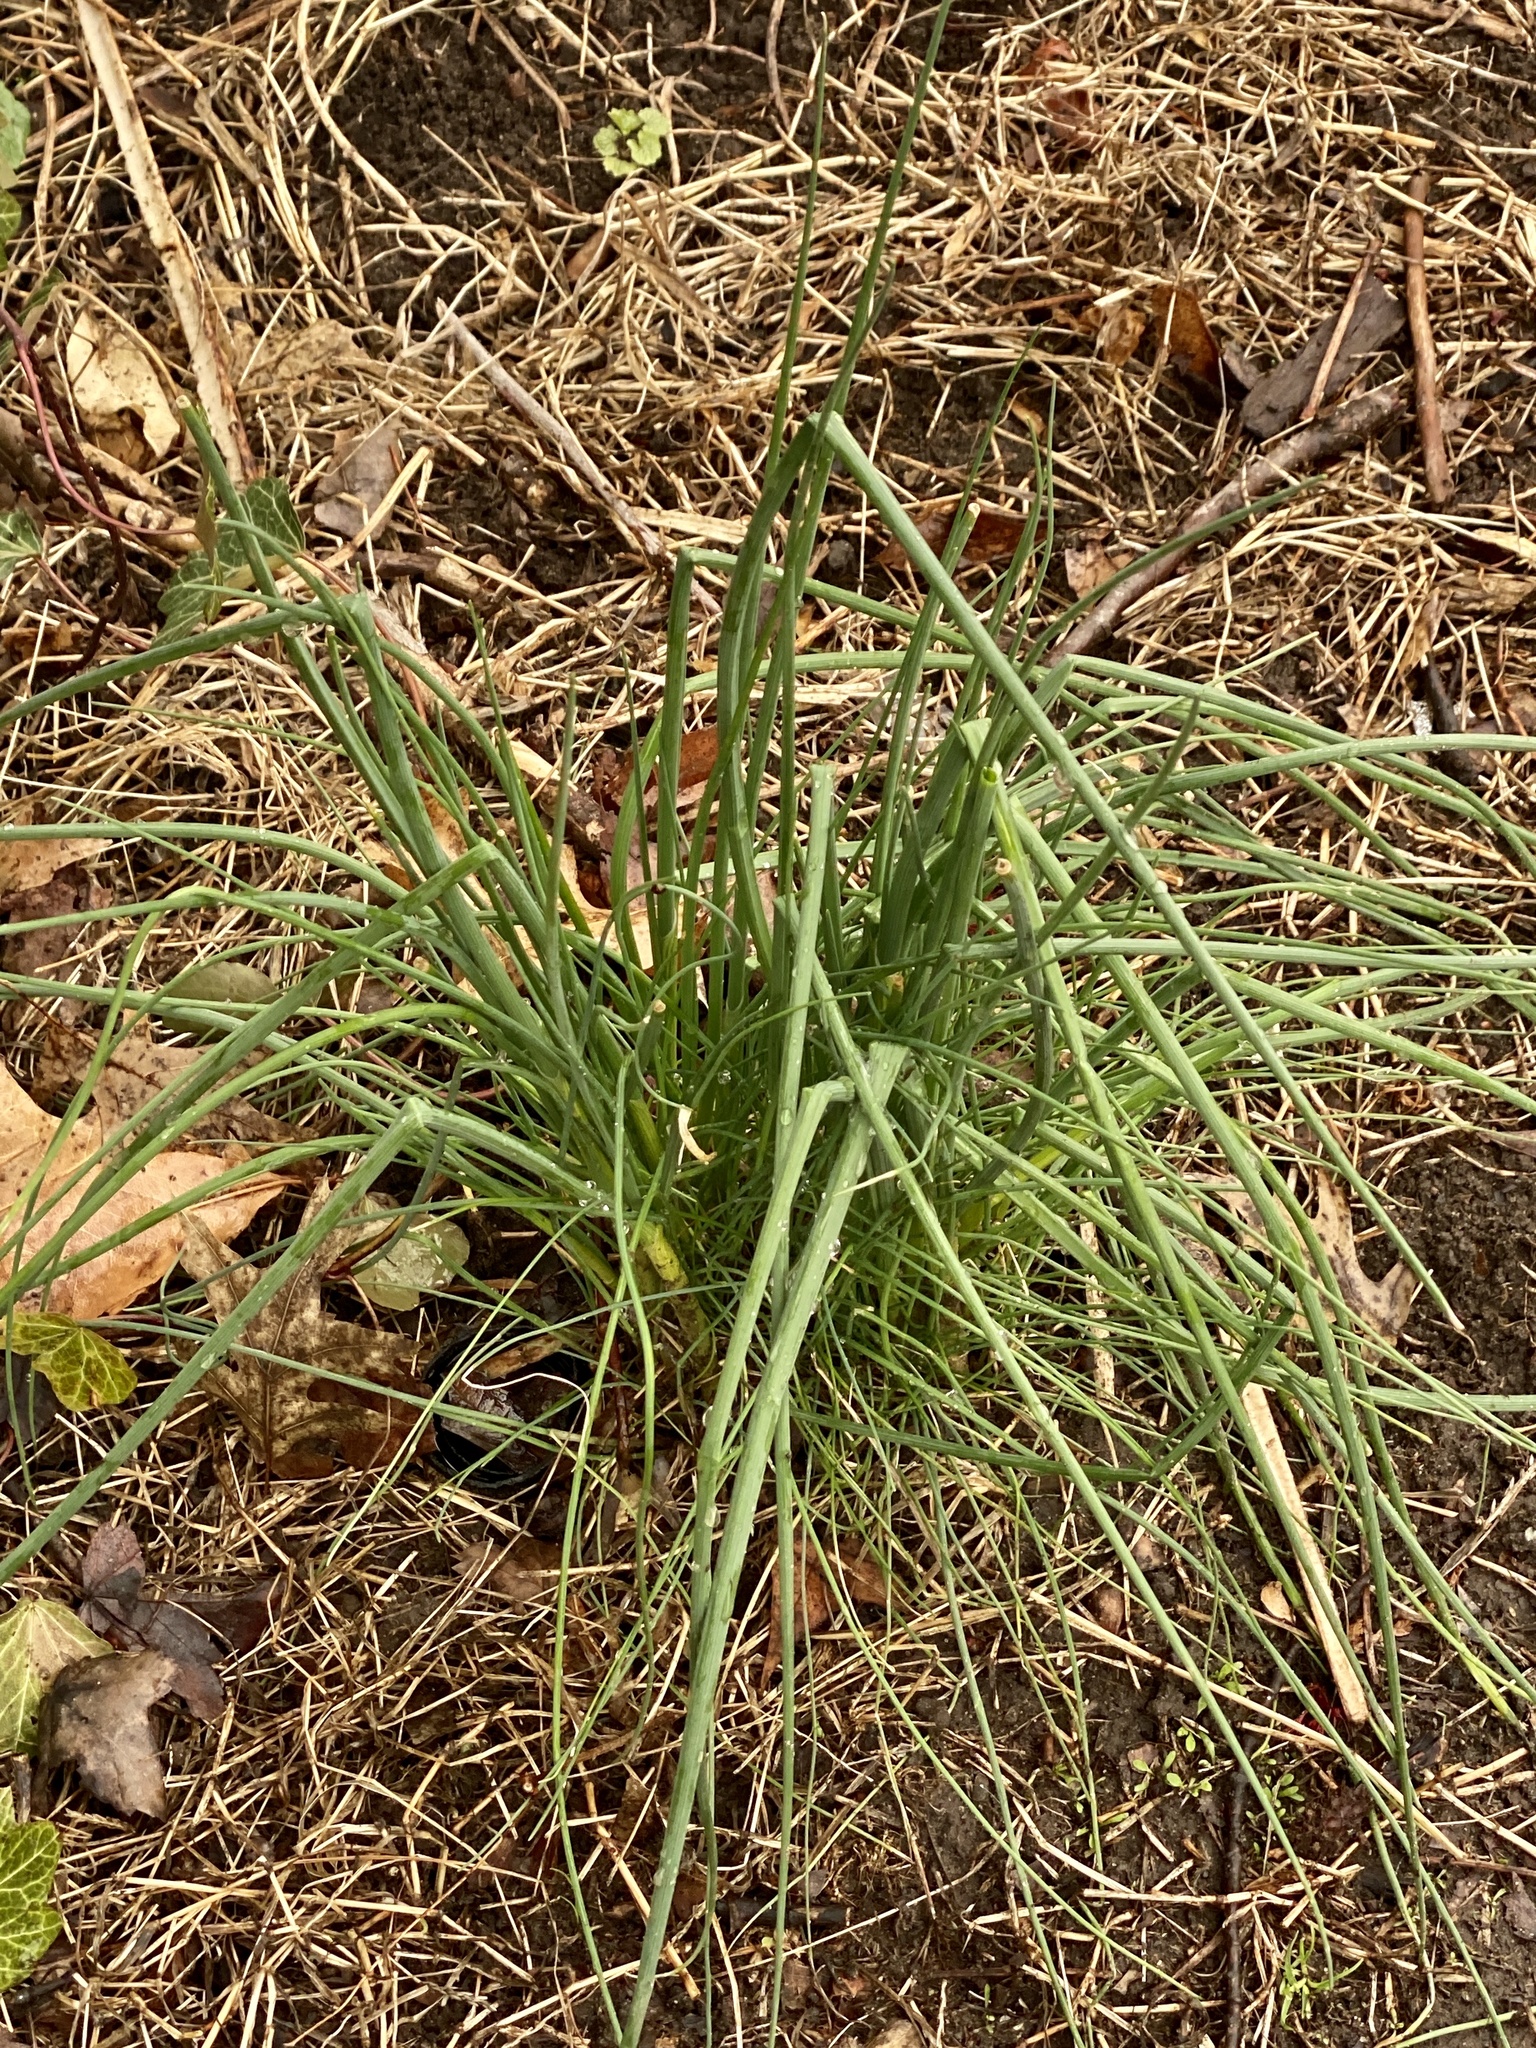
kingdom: Plantae
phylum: Tracheophyta
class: Liliopsida
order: Asparagales
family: Amaryllidaceae
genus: Allium
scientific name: Allium vineale
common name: Crow garlic
